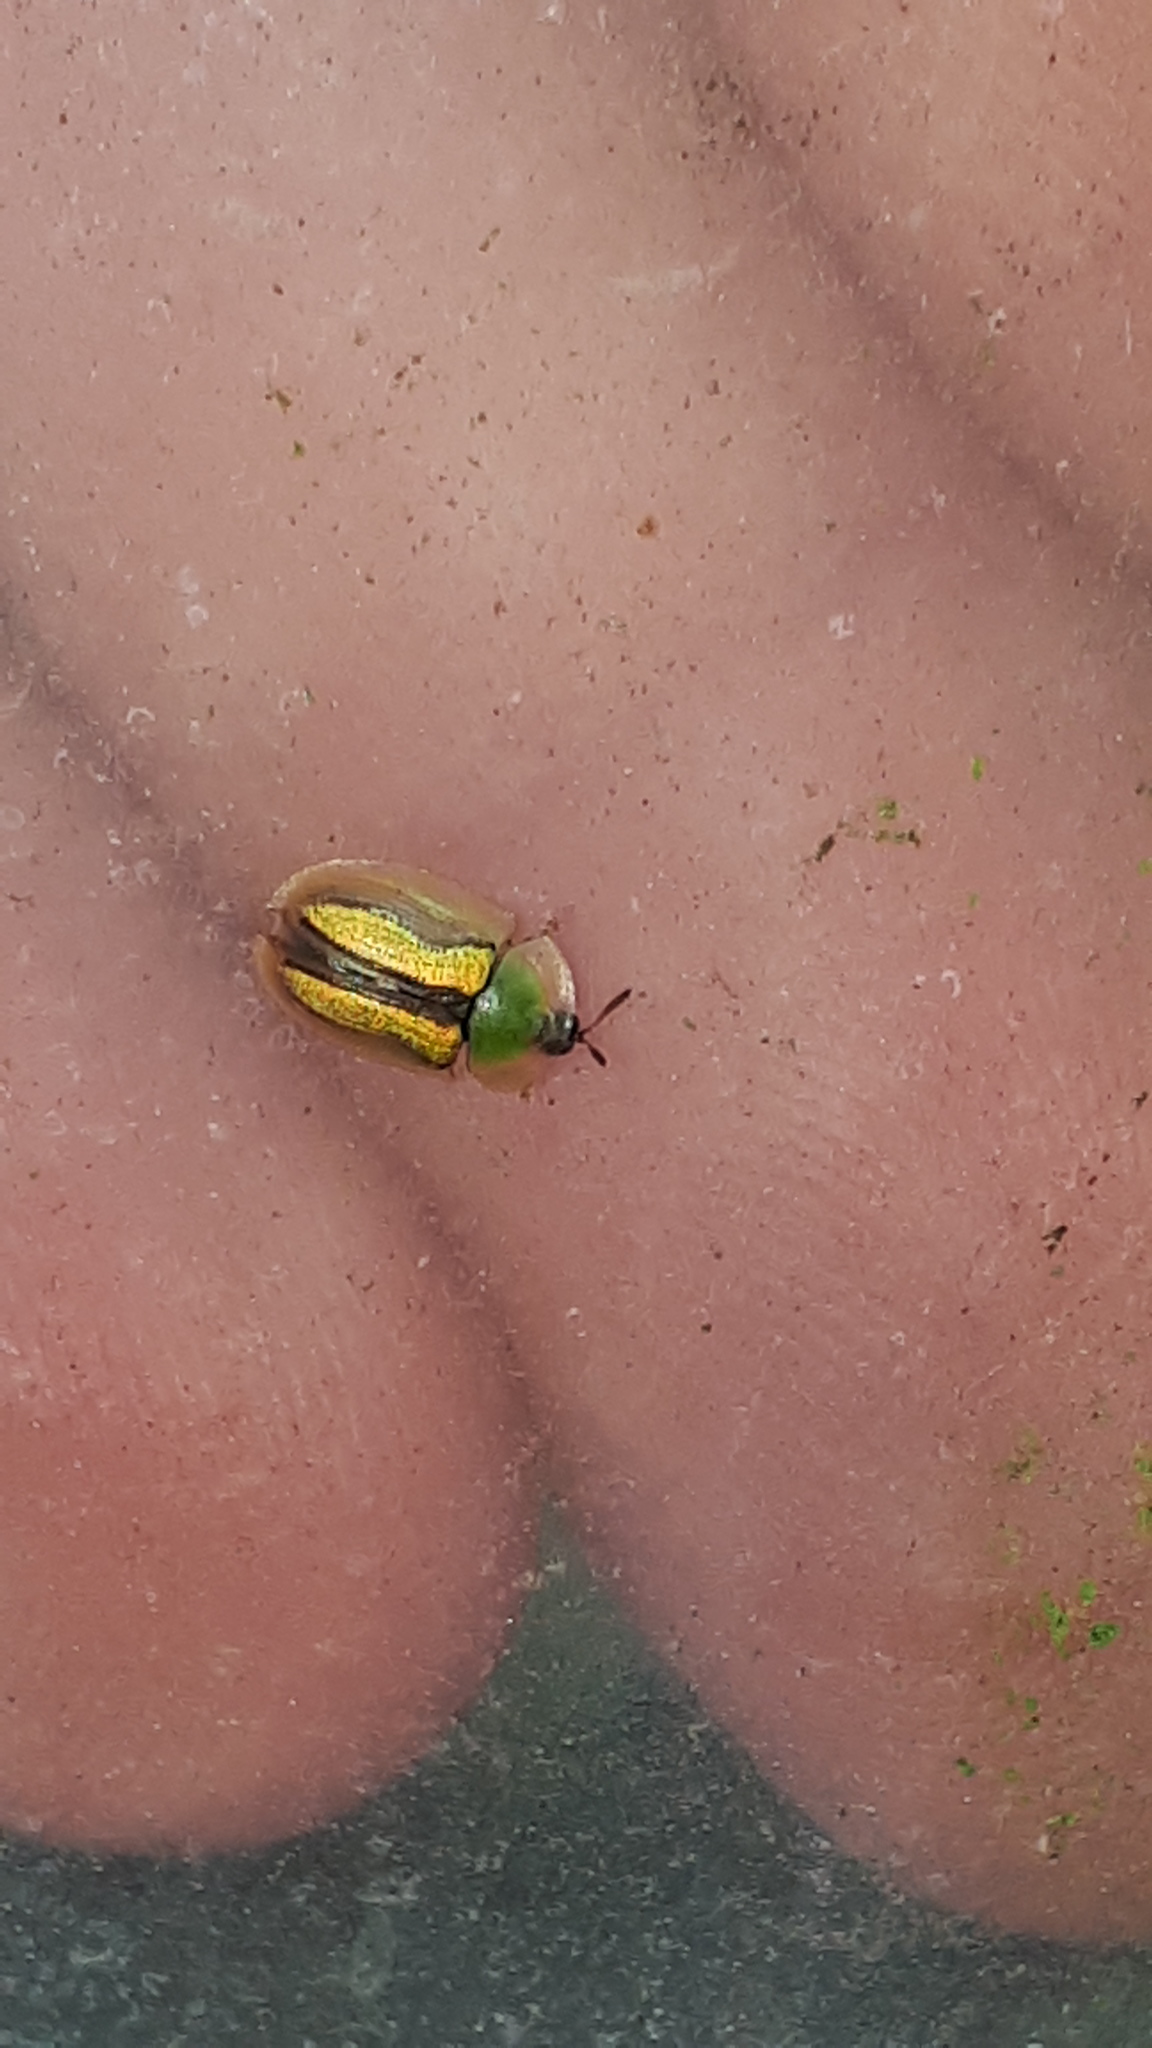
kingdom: Animalia
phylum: Arthropoda
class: Insecta
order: Coleoptera
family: Chrysomelidae
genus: Cassida
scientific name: Cassida vittata
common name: Bordered tortoise beetle
